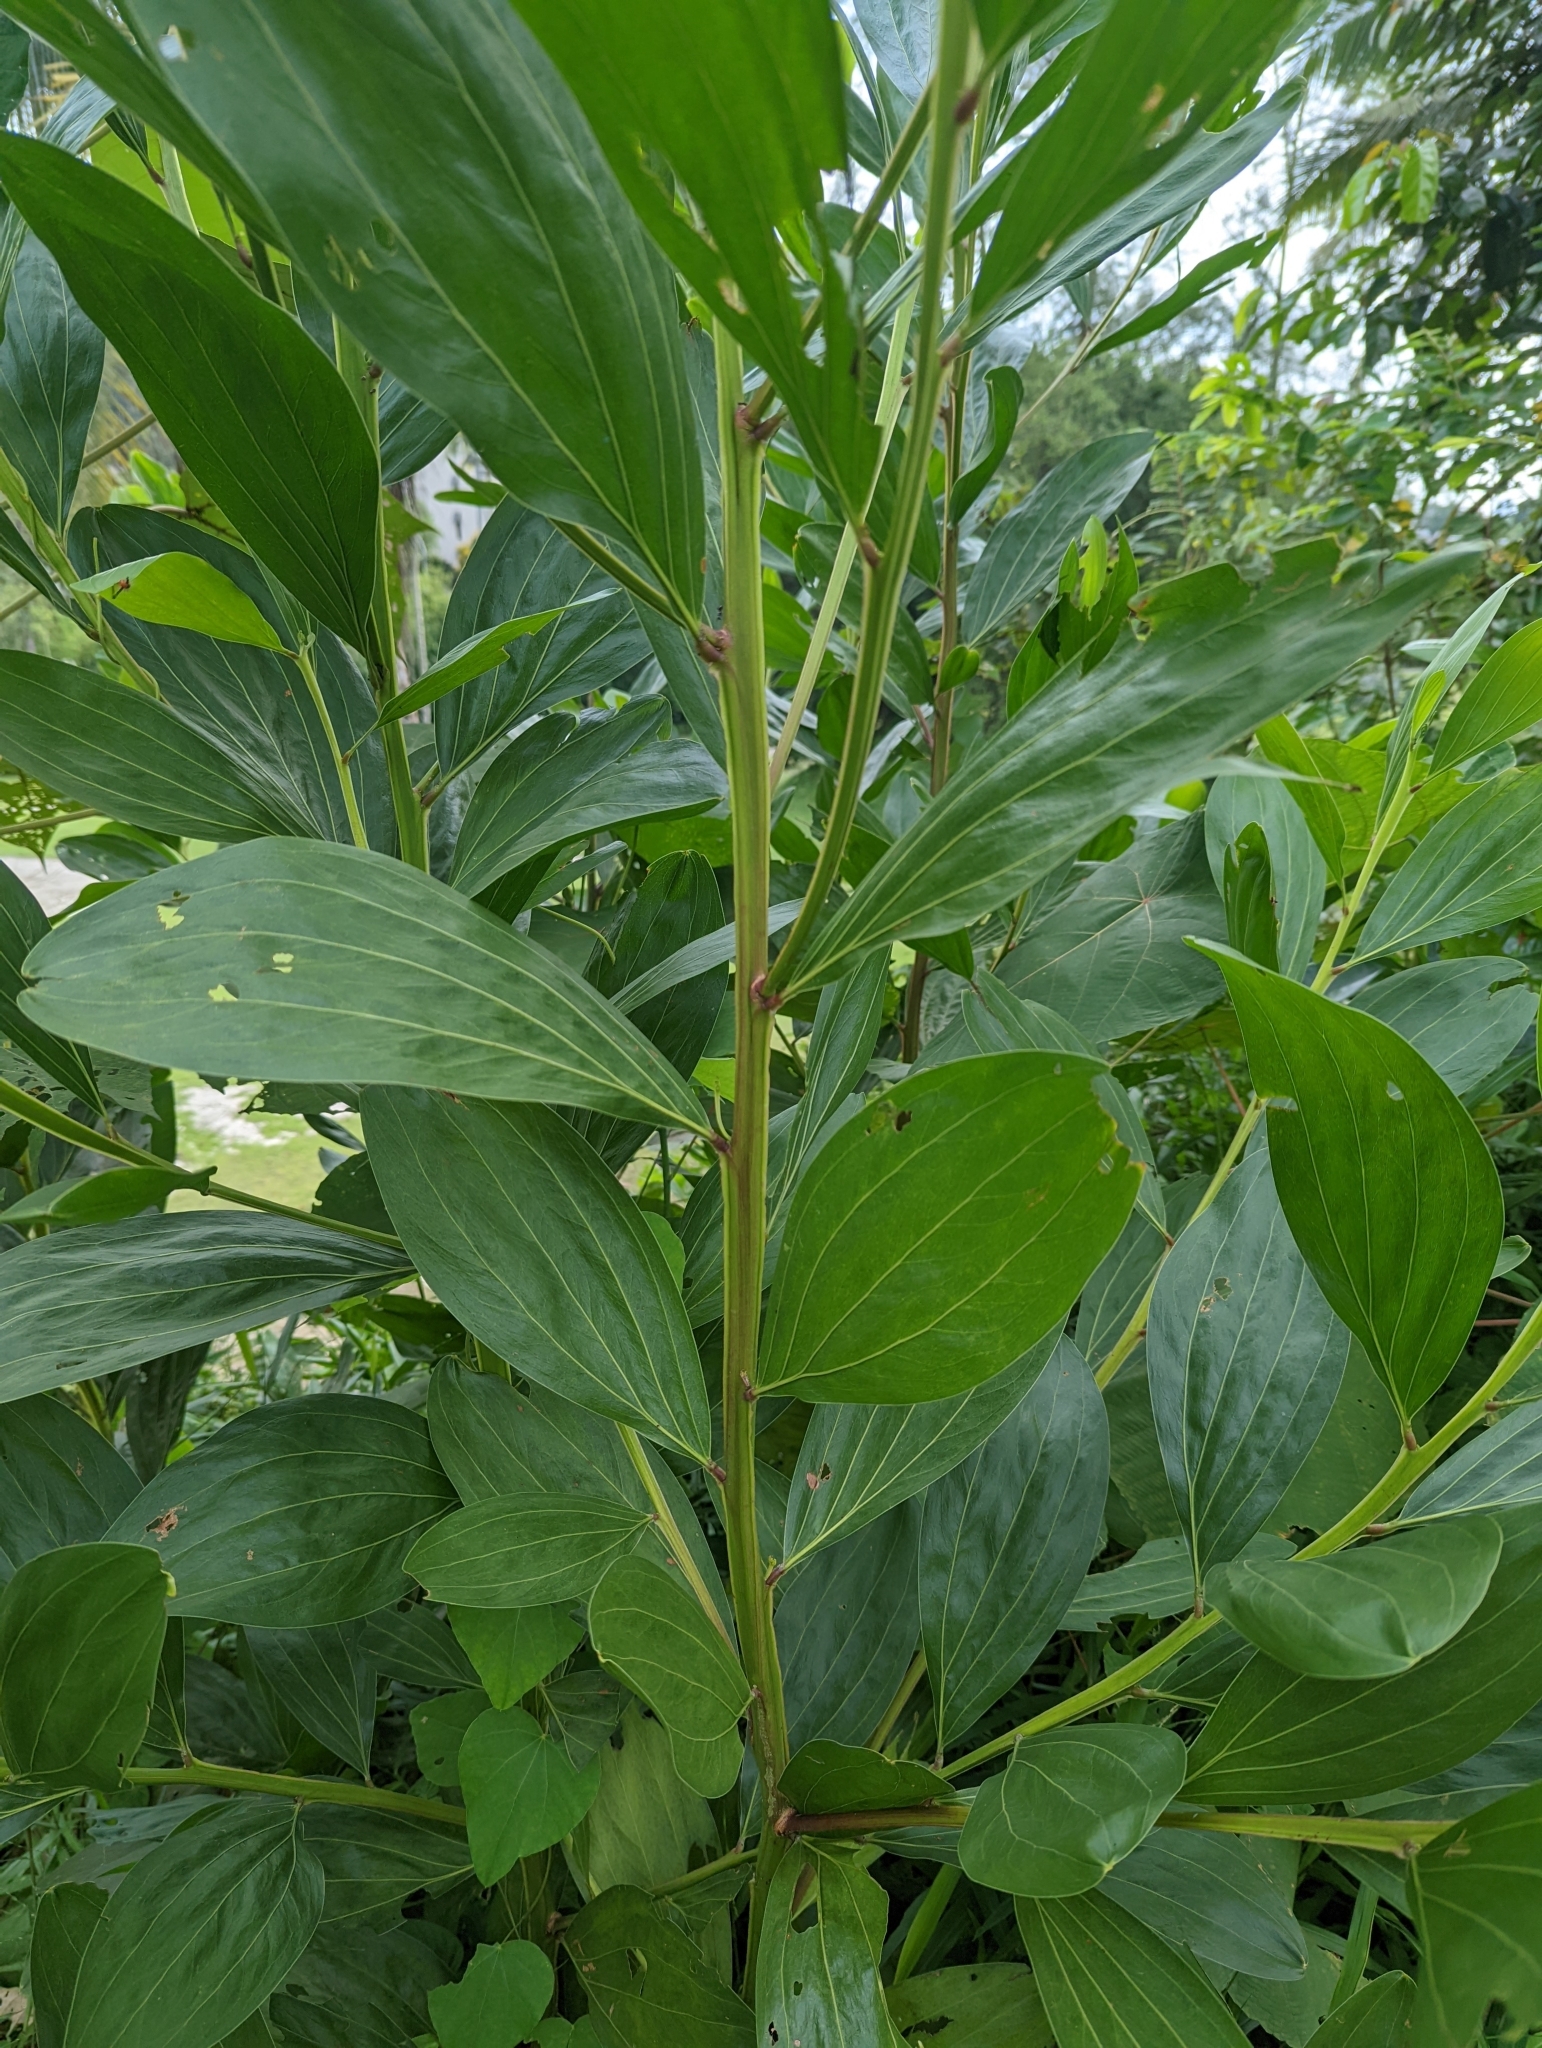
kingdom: Plantae
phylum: Tracheophyta
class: Magnoliopsida
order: Fabales
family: Fabaceae
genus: Acacia
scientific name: Acacia mangium
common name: Black wattle
